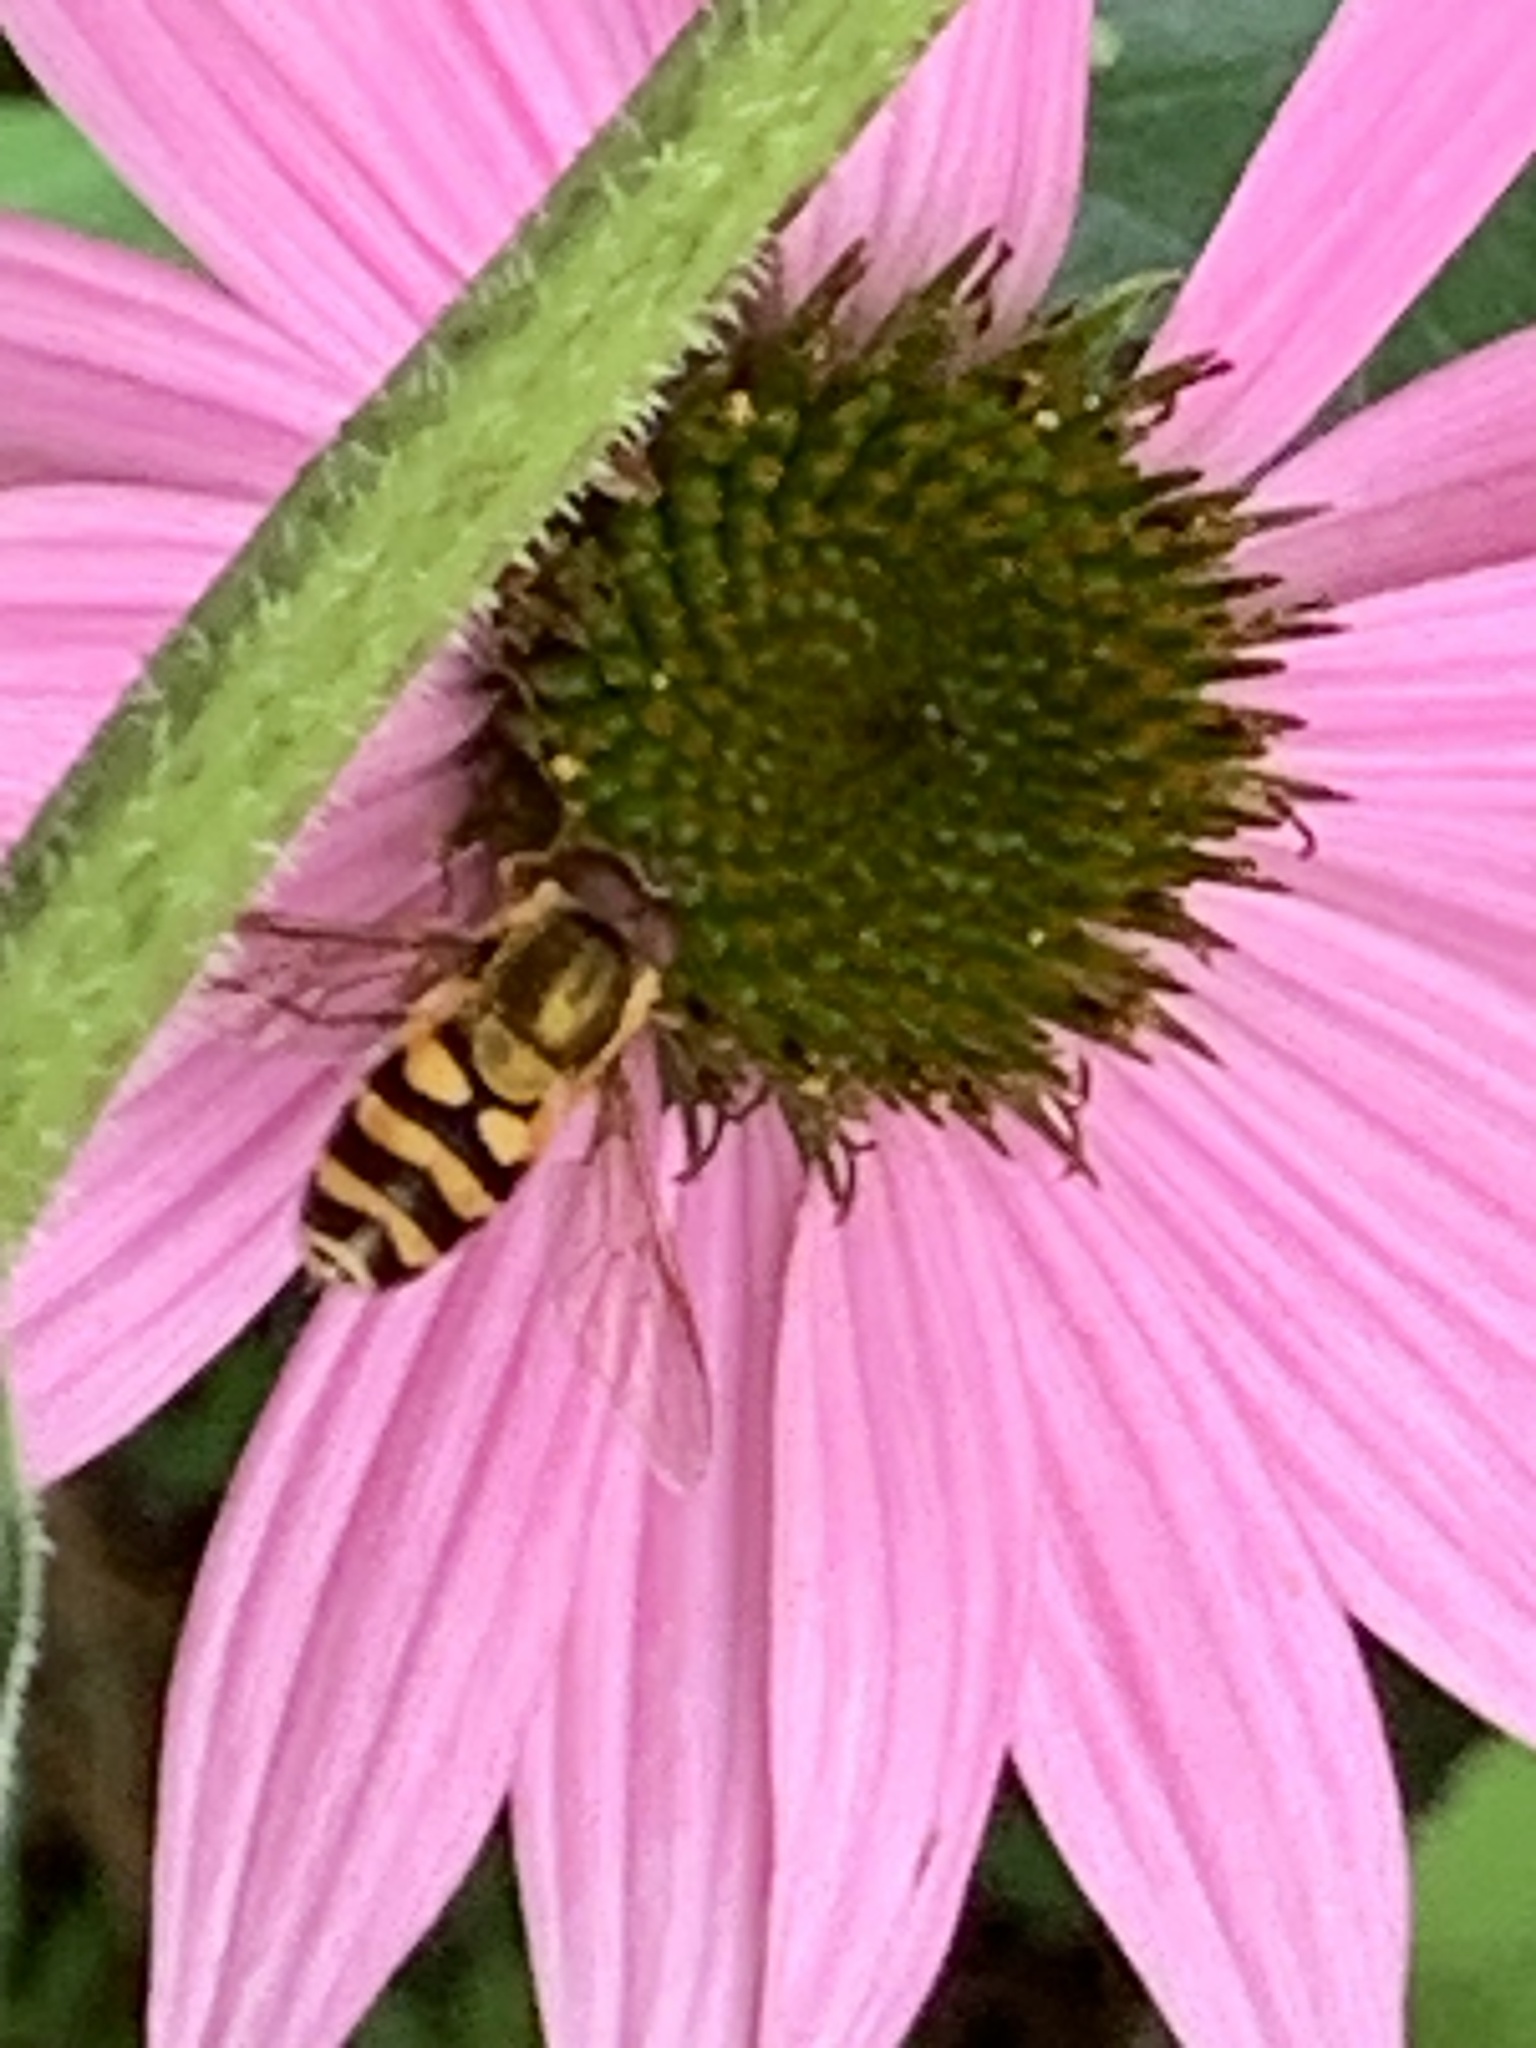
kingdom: Animalia
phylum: Arthropoda
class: Insecta
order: Diptera
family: Syrphidae
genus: Syrphus
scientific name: Syrphus
